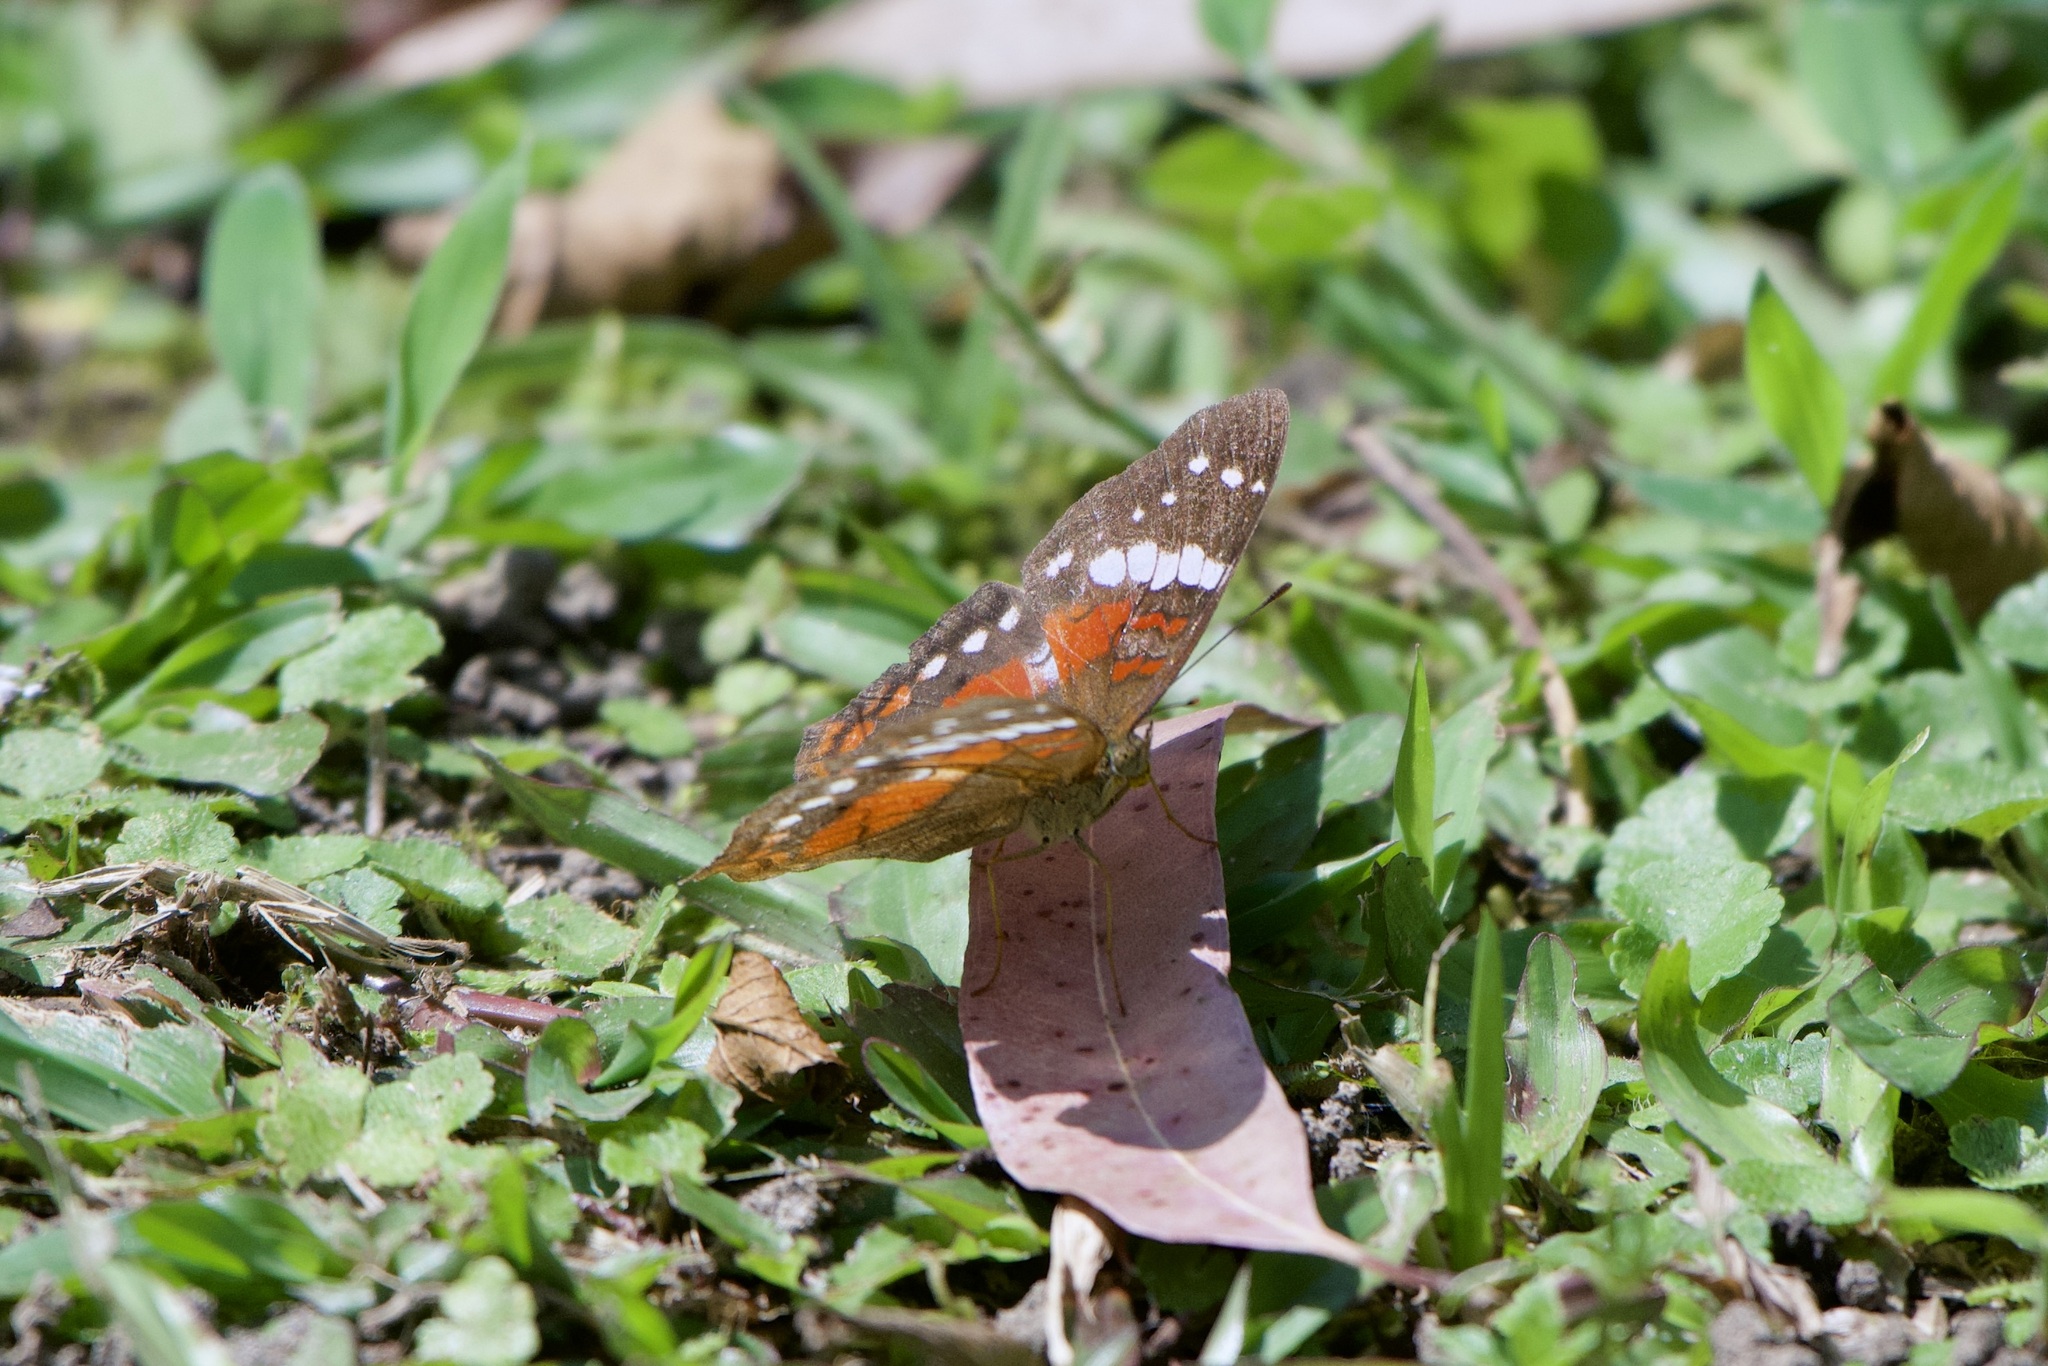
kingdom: Animalia
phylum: Arthropoda
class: Insecta
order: Lepidoptera
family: Nymphalidae
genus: Anartia
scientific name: Anartia amathea
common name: Red peacock
